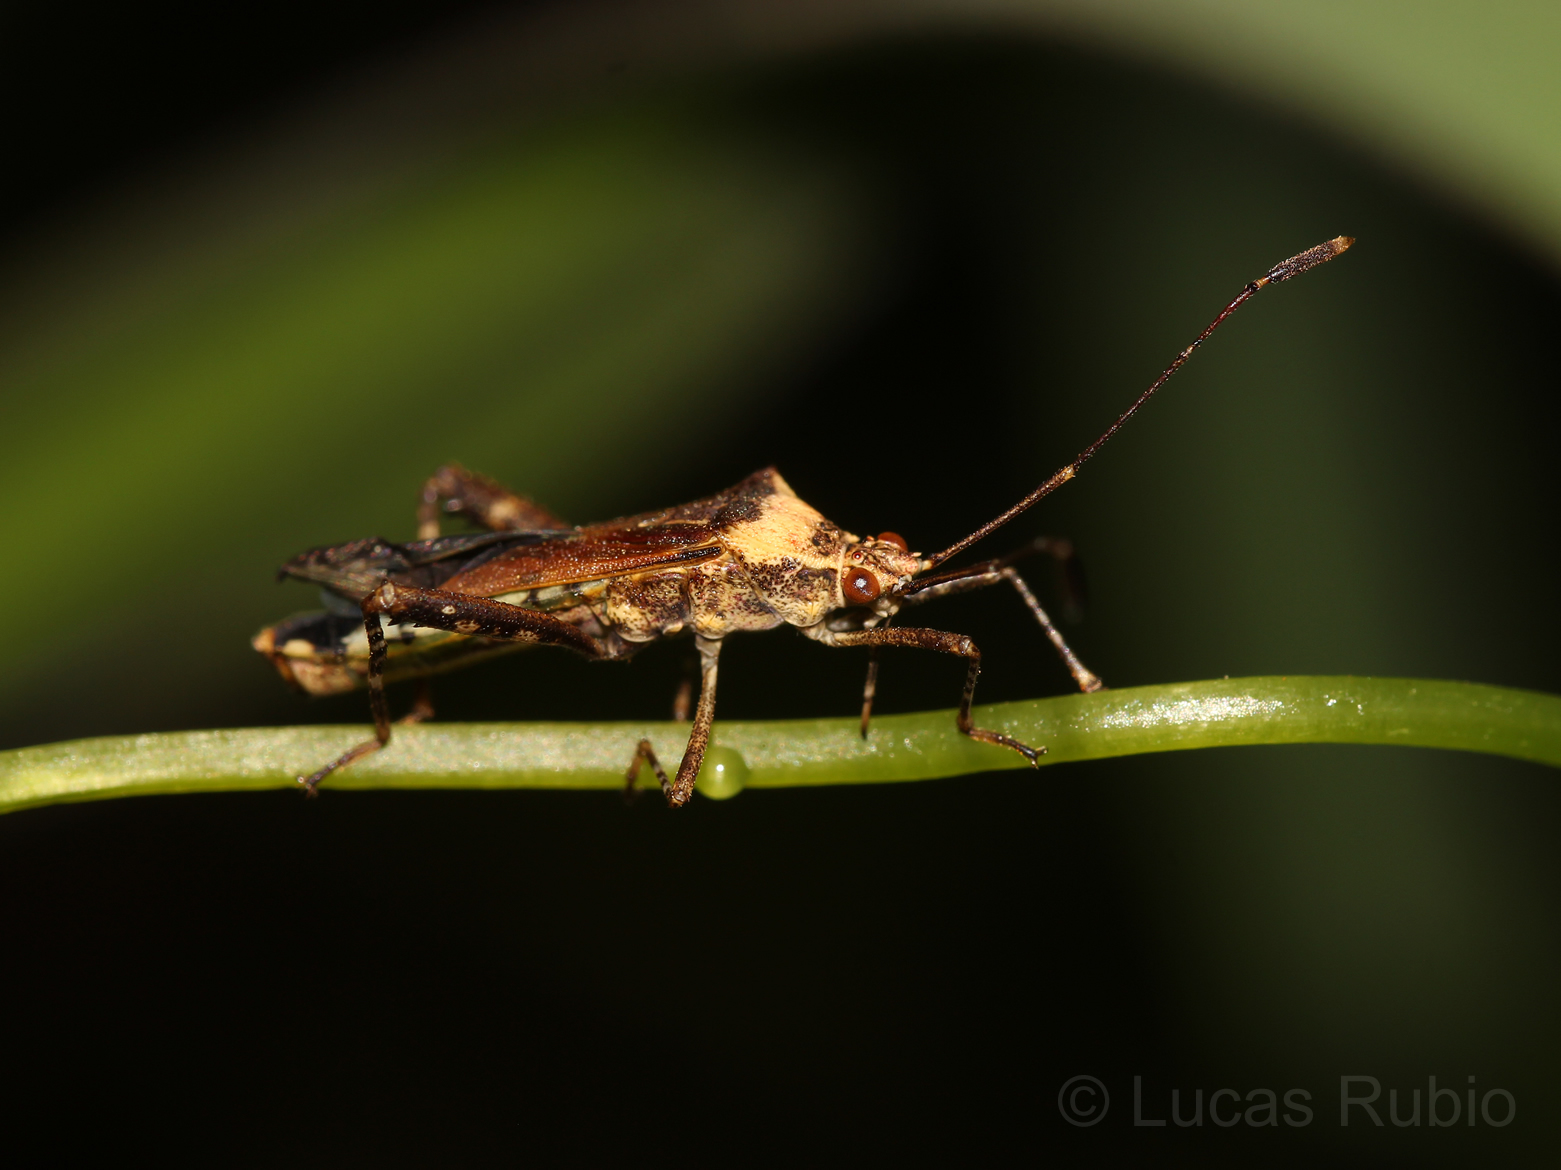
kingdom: Animalia
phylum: Arthropoda
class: Insecta
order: Hemiptera
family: Coreidae
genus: Zoreva
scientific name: Zoreva dentipes
